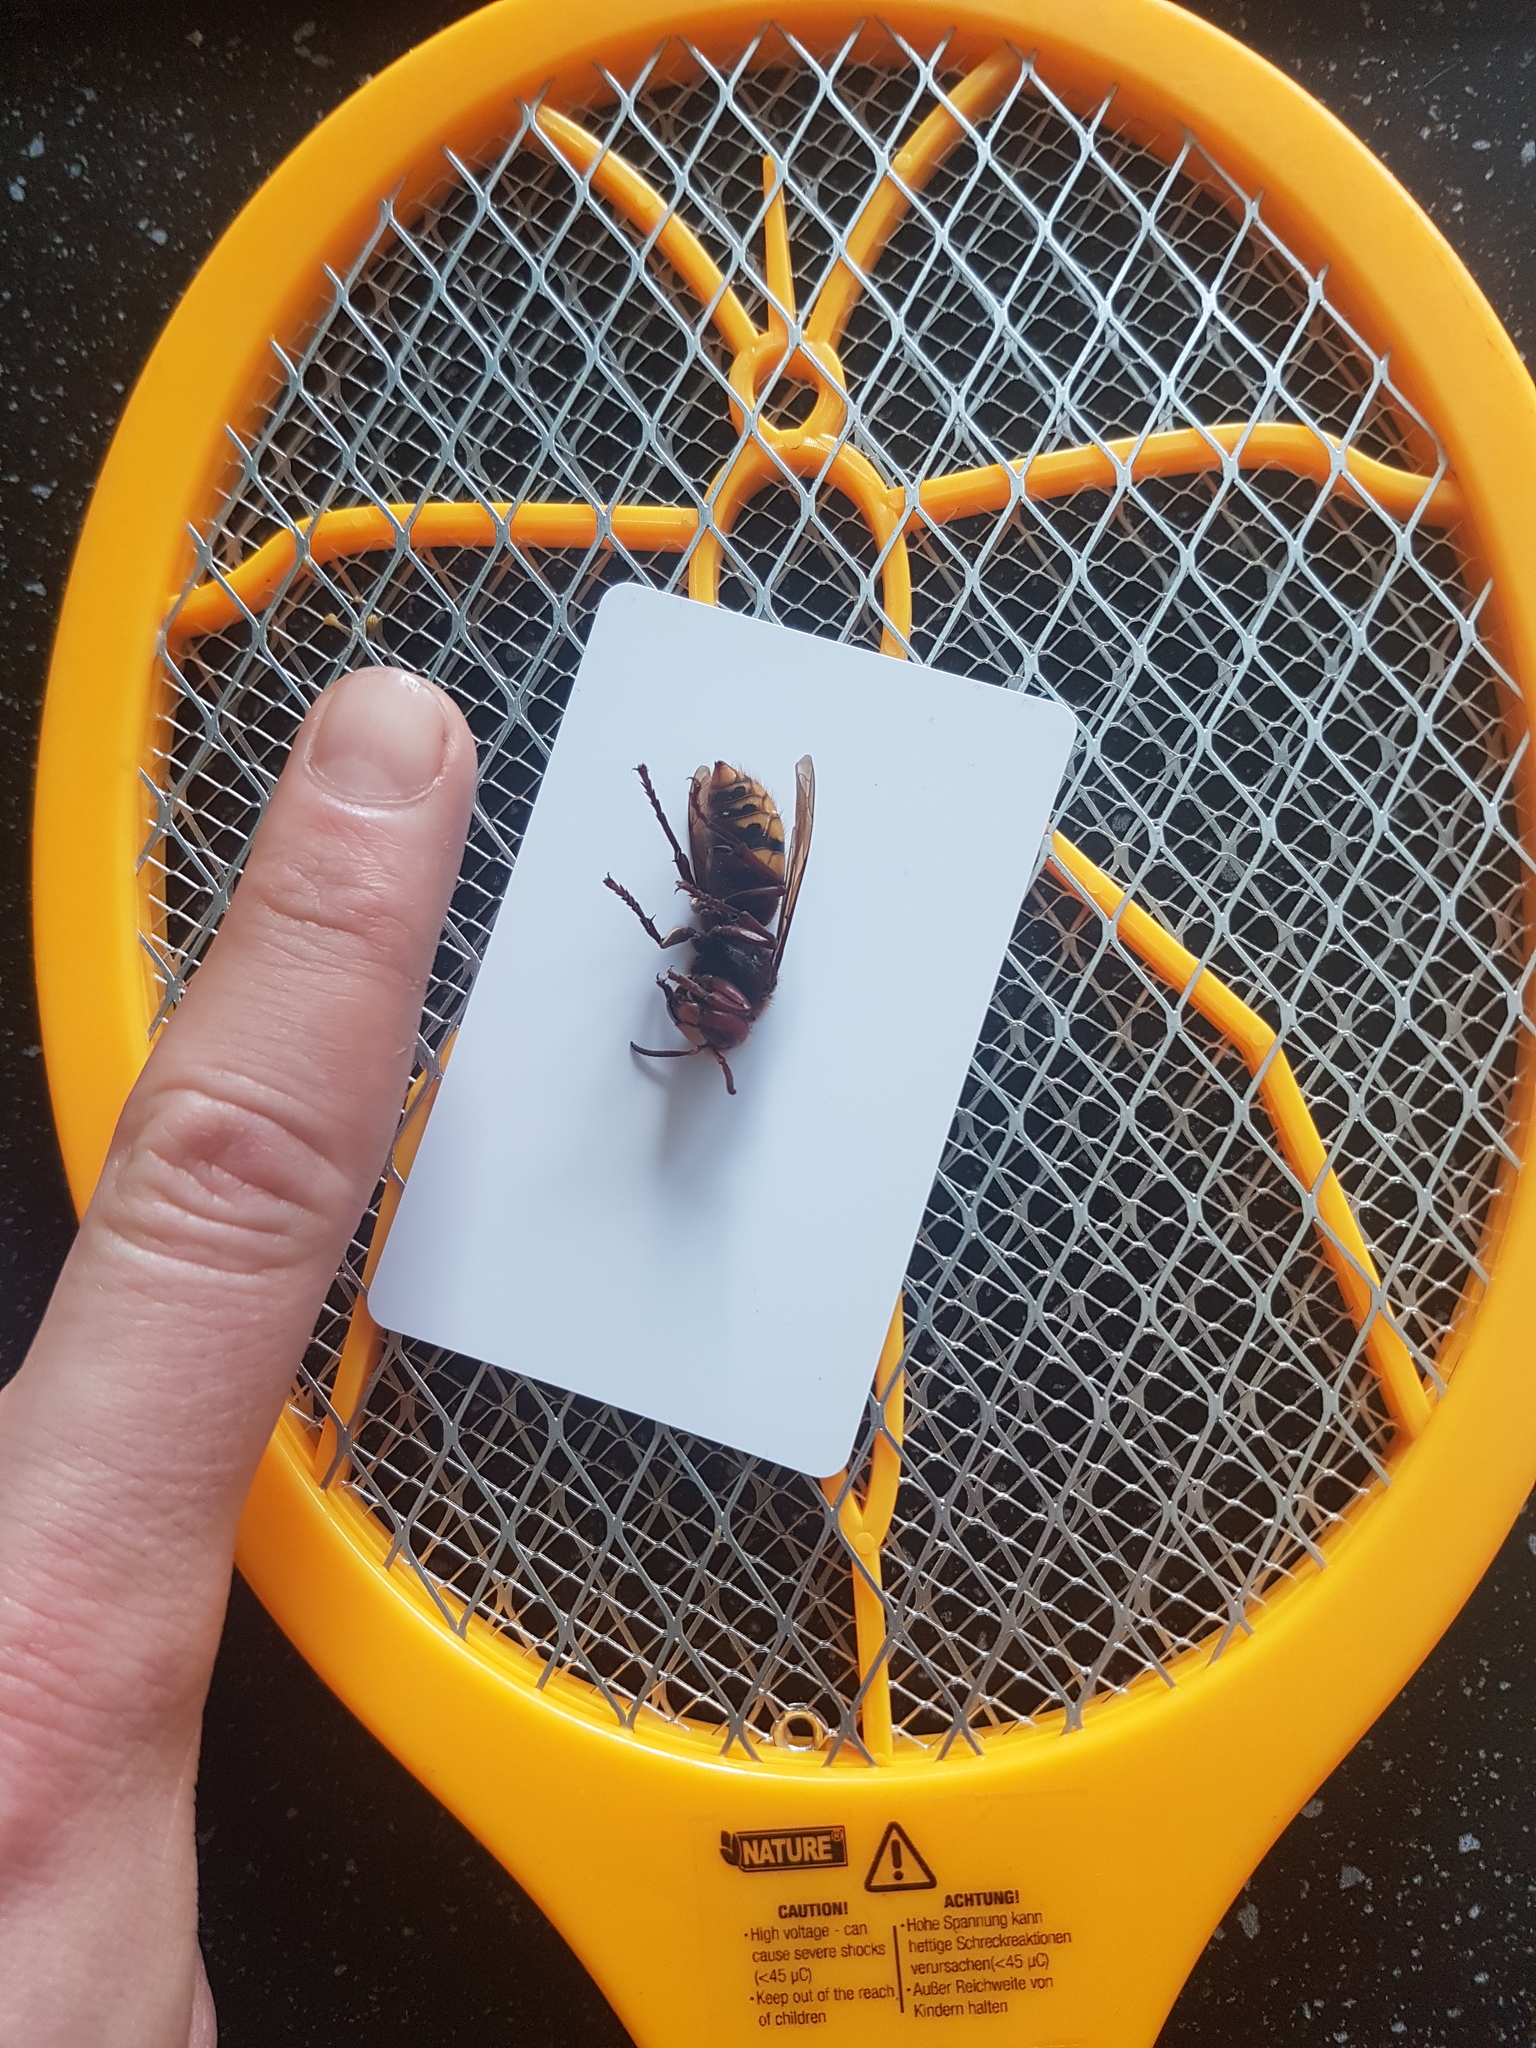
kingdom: Animalia
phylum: Arthropoda
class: Insecta
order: Hymenoptera
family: Vespidae
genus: Vespa
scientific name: Vespa crabro
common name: Hornet
